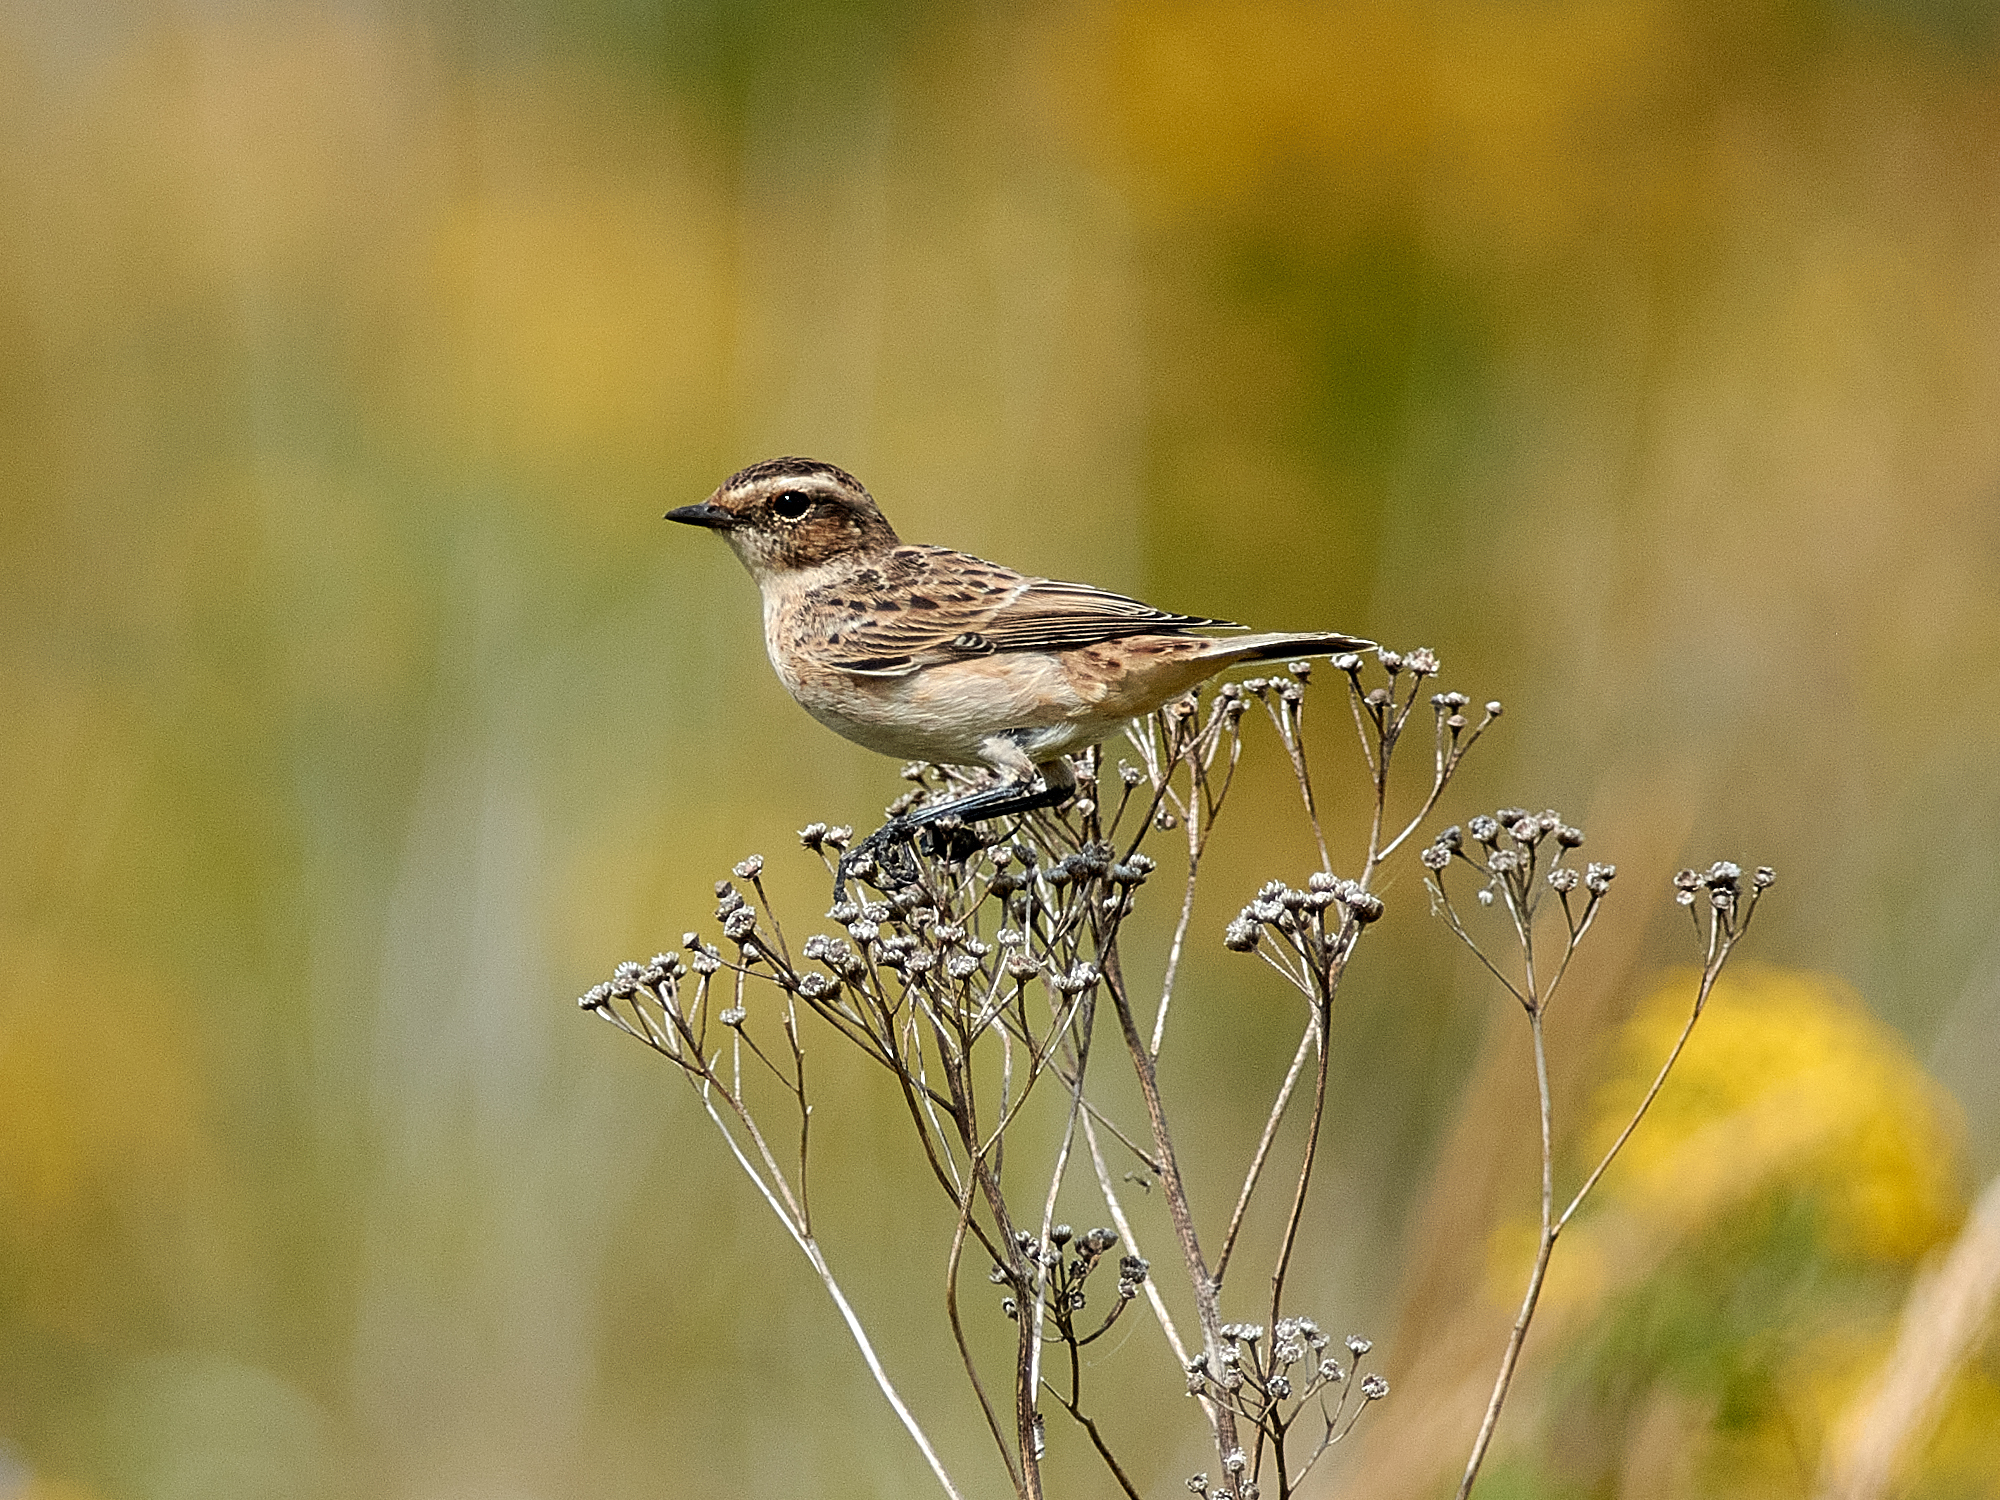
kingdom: Animalia
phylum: Chordata
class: Aves
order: Passeriformes
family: Muscicapidae
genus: Saxicola
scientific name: Saxicola rubetra
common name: Whinchat
